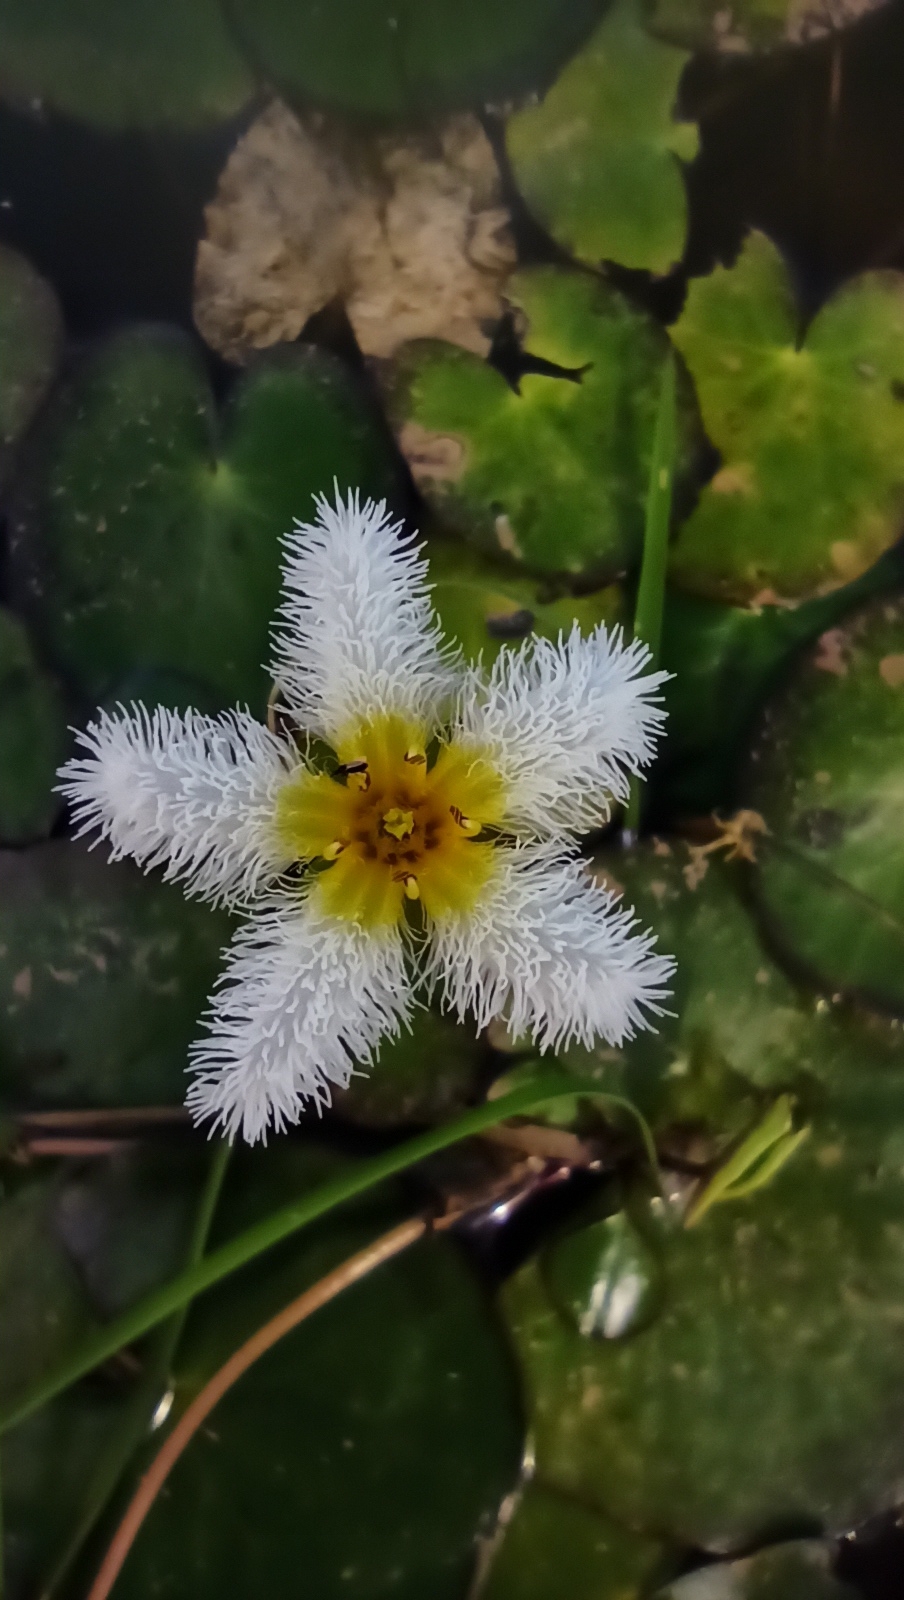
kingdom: Plantae
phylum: Tracheophyta
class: Magnoliopsida
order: Asterales
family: Menyanthaceae
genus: Nymphoides
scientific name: Nymphoides humboldtiana
